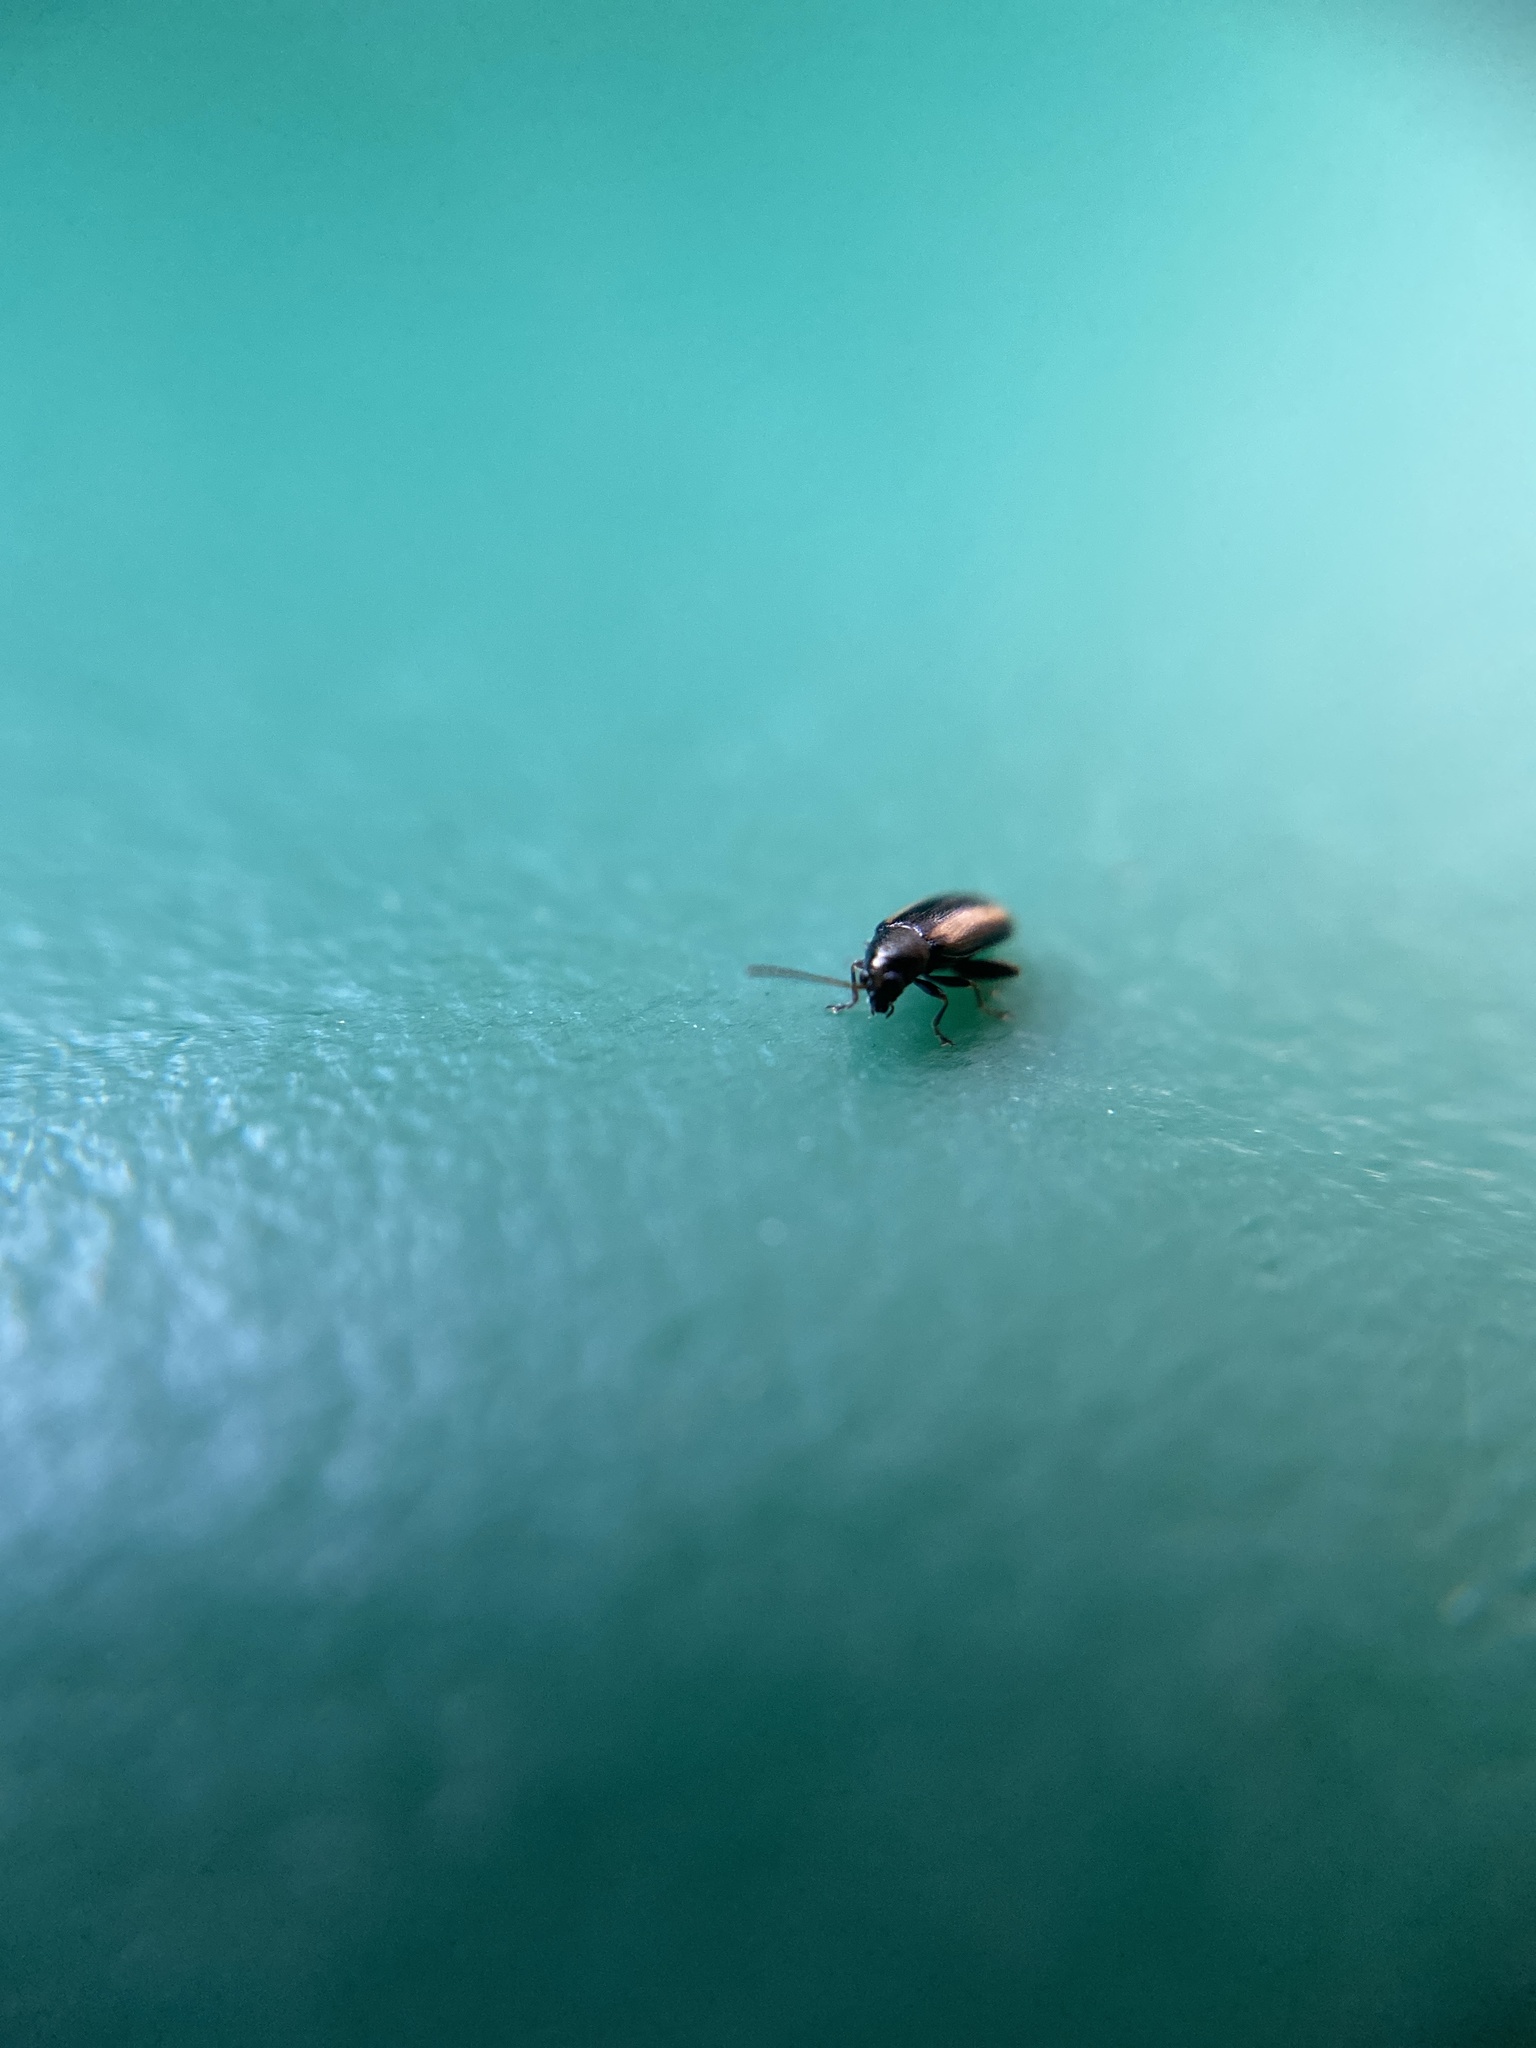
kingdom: Animalia
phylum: Arthropoda
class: Insecta
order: Coleoptera
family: Chrysomelidae
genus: Phyllotreta
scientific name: Phyllotreta vittula
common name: Barley flea beetle
